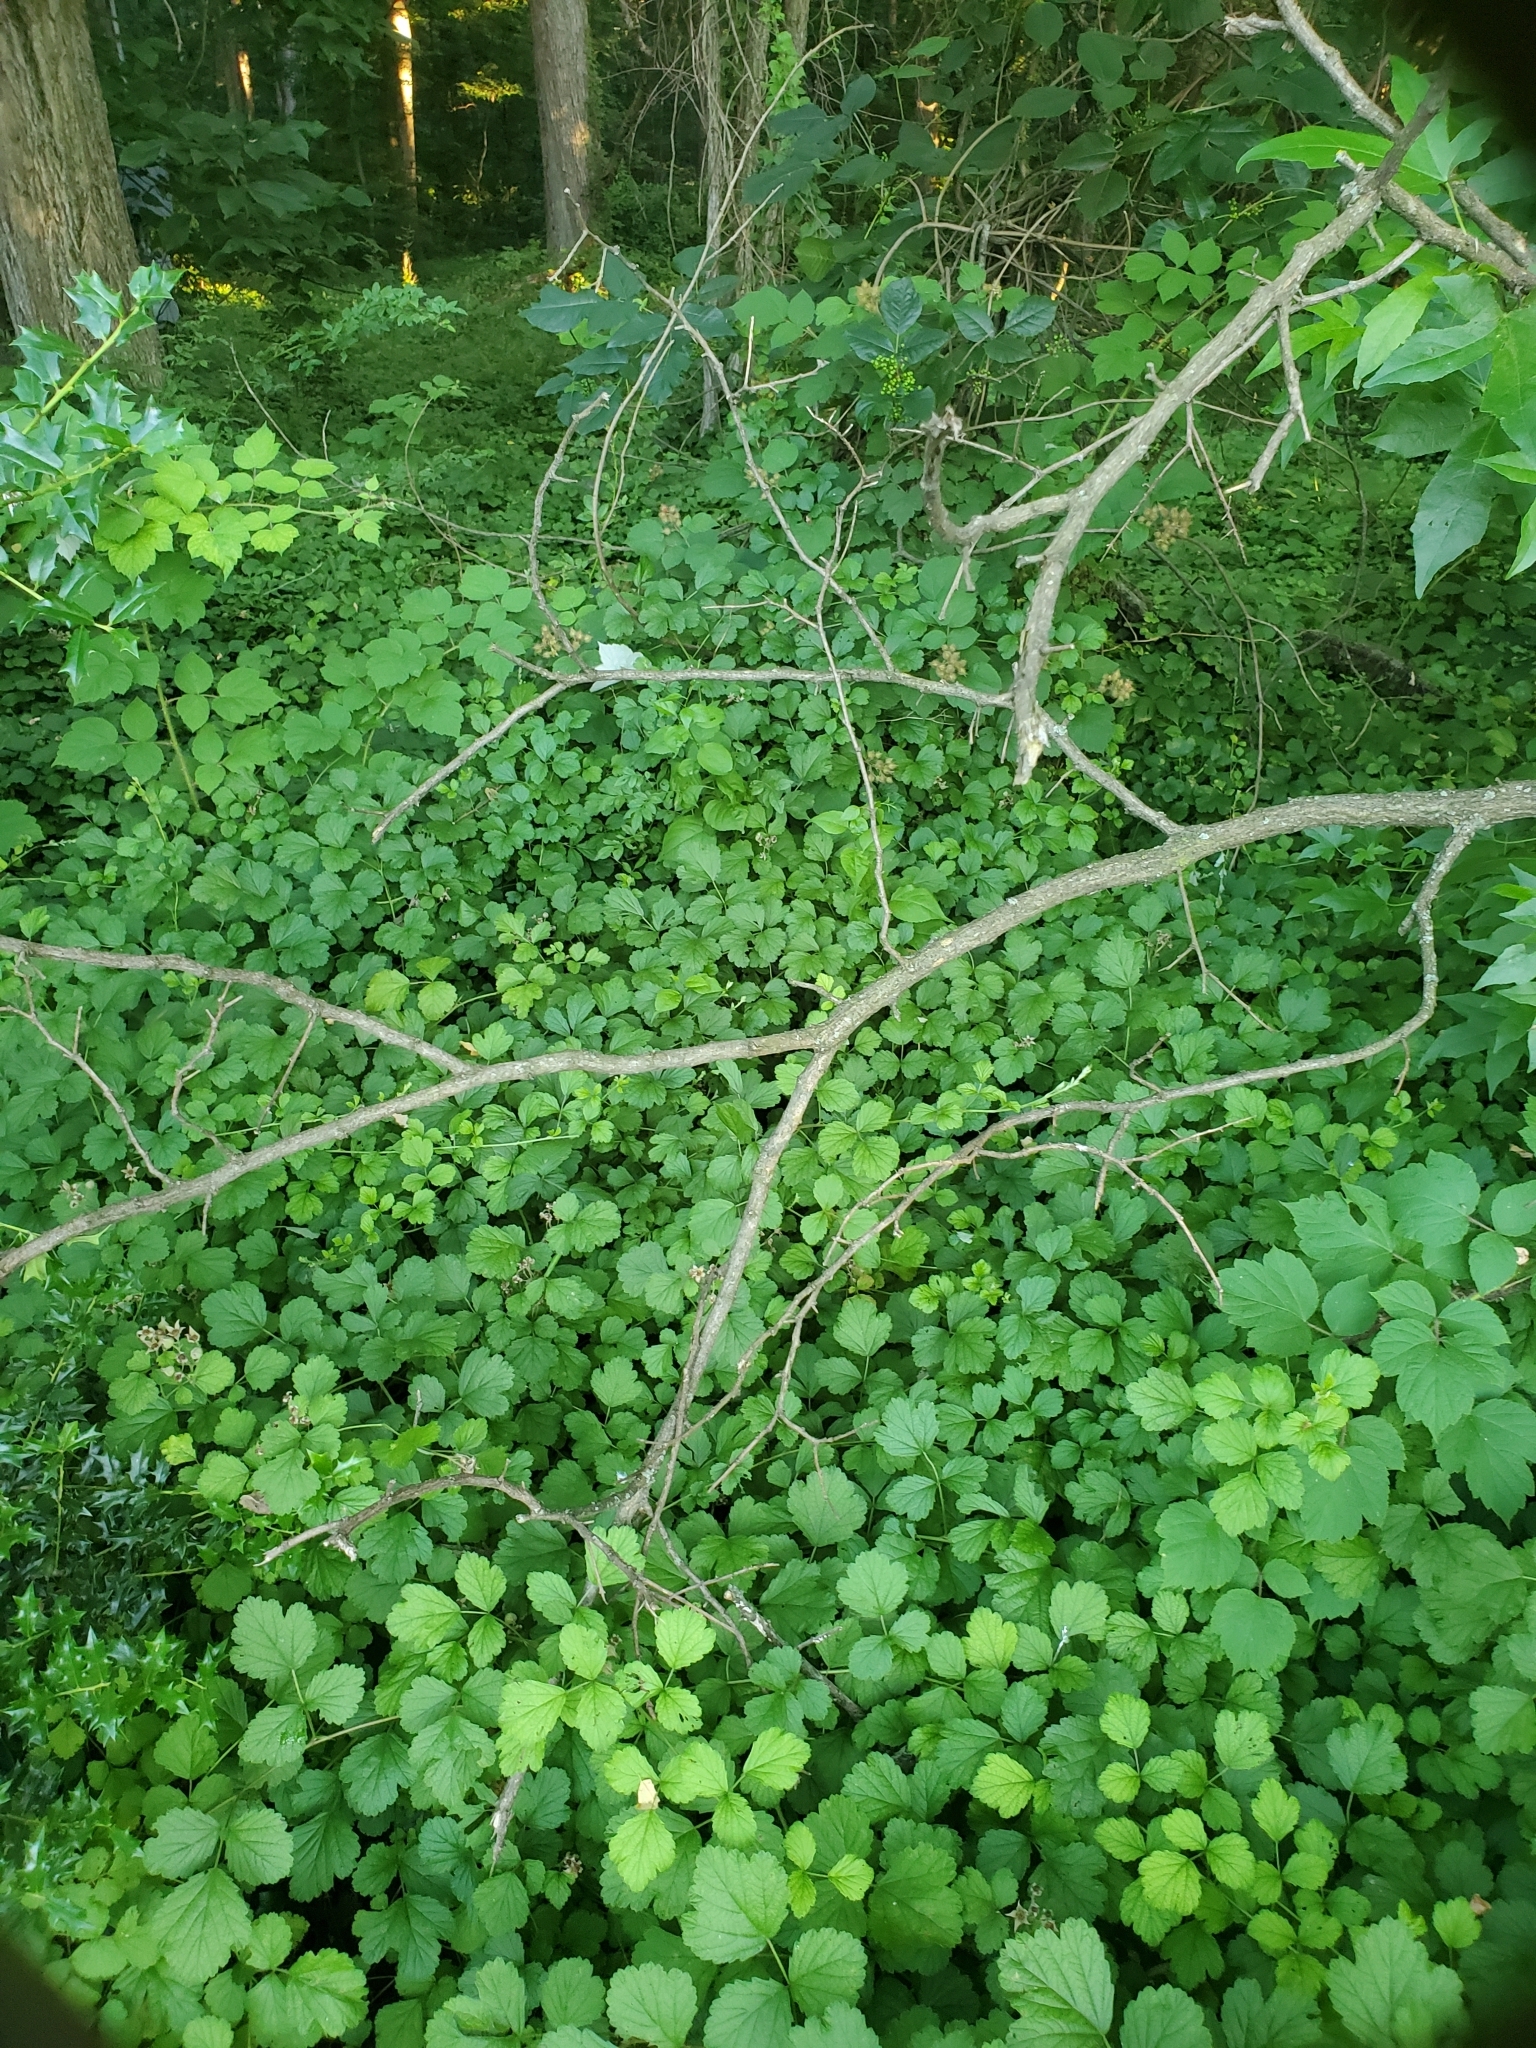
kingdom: Plantae
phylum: Tracheophyta
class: Magnoliopsida
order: Rosales
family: Rosaceae
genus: Rubus
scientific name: Rubus parvifolius
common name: Threeleaf blackberry
